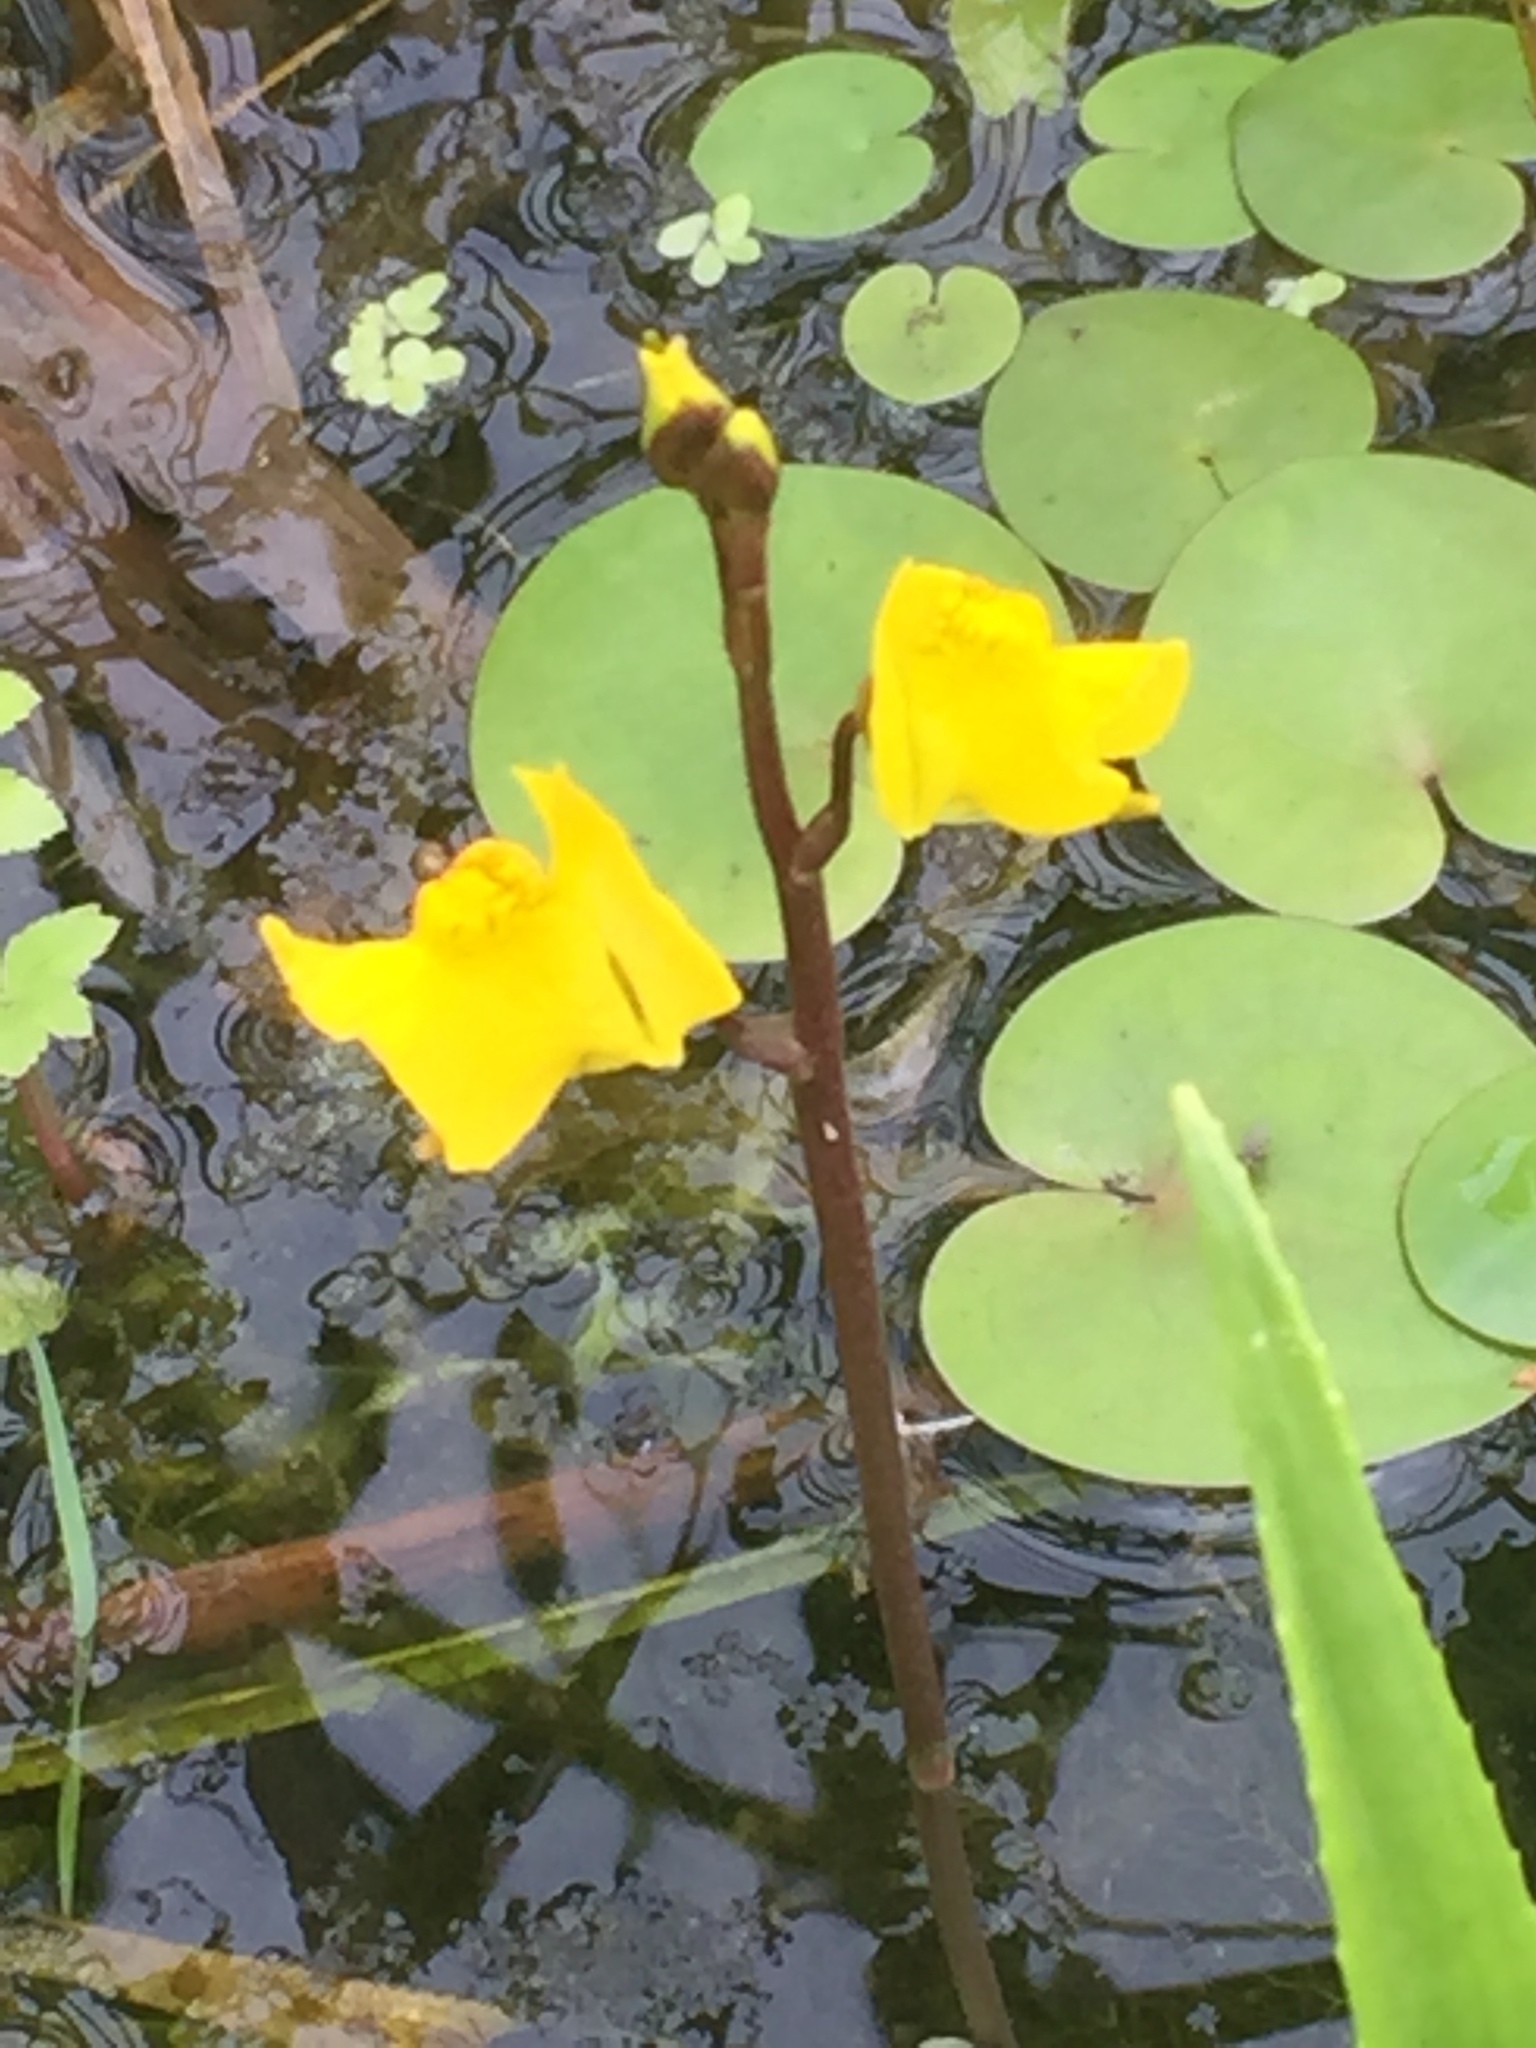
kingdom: Plantae
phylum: Tracheophyta
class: Magnoliopsida
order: Lamiales
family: Lentibulariaceae
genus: Utricularia
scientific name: Utricularia vulgaris
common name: Greater bladderwort
